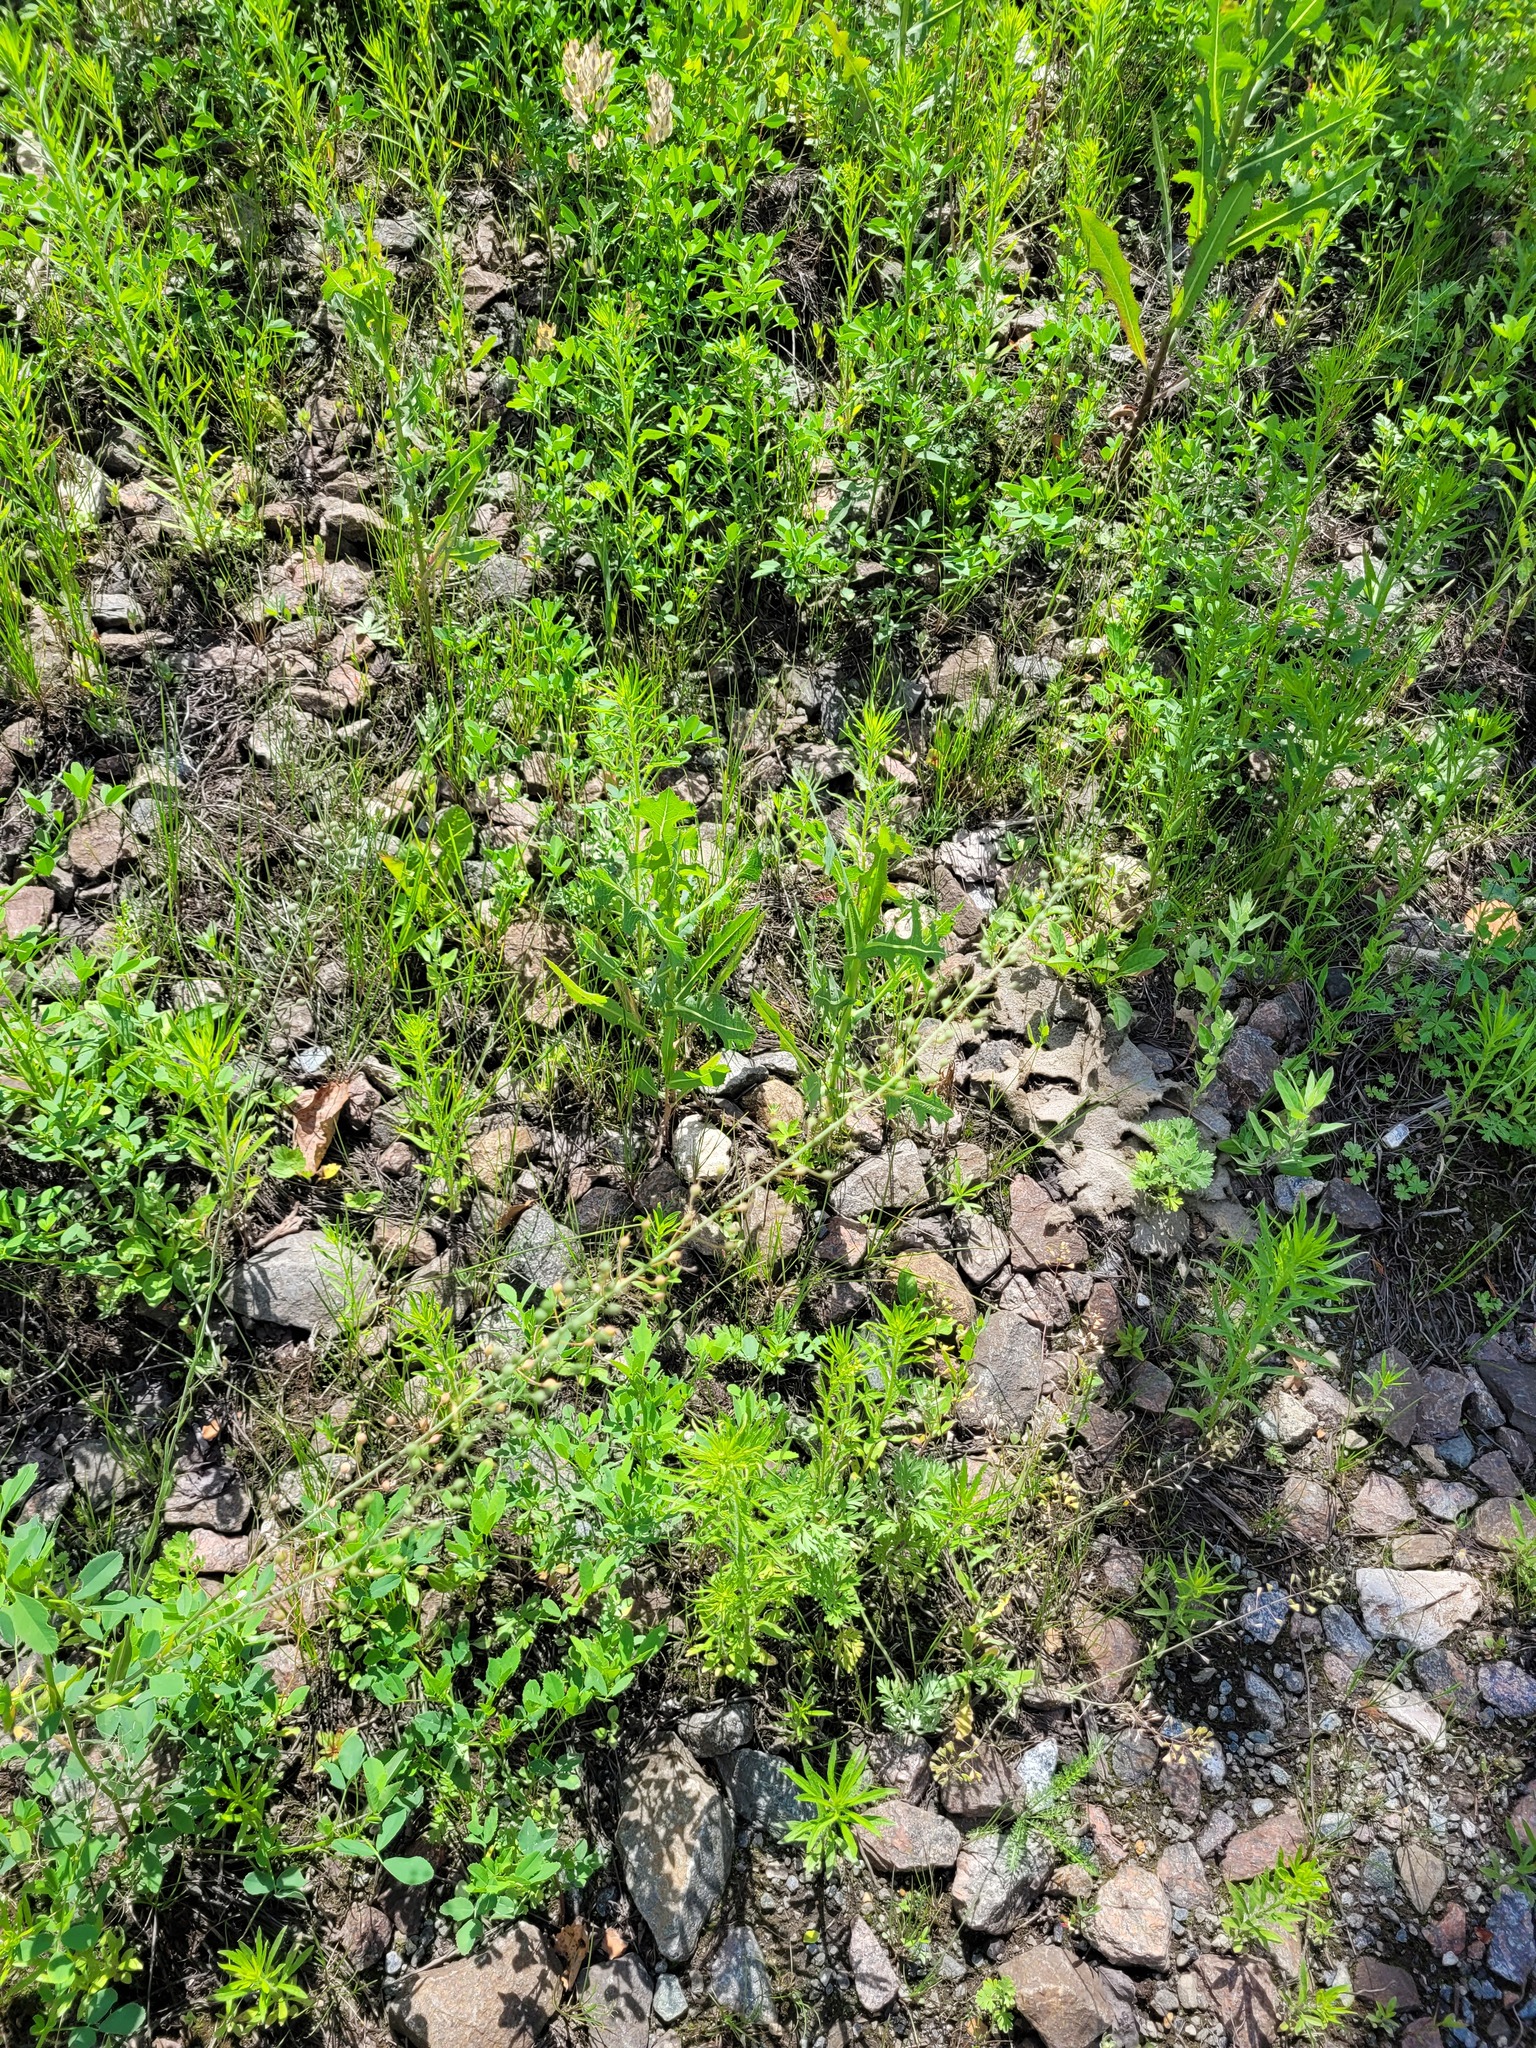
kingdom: Plantae
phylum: Tracheophyta
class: Magnoliopsida
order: Brassicales
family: Brassicaceae
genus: Camelina
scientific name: Camelina microcarpa
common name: Lesser gold-of-pleasure
